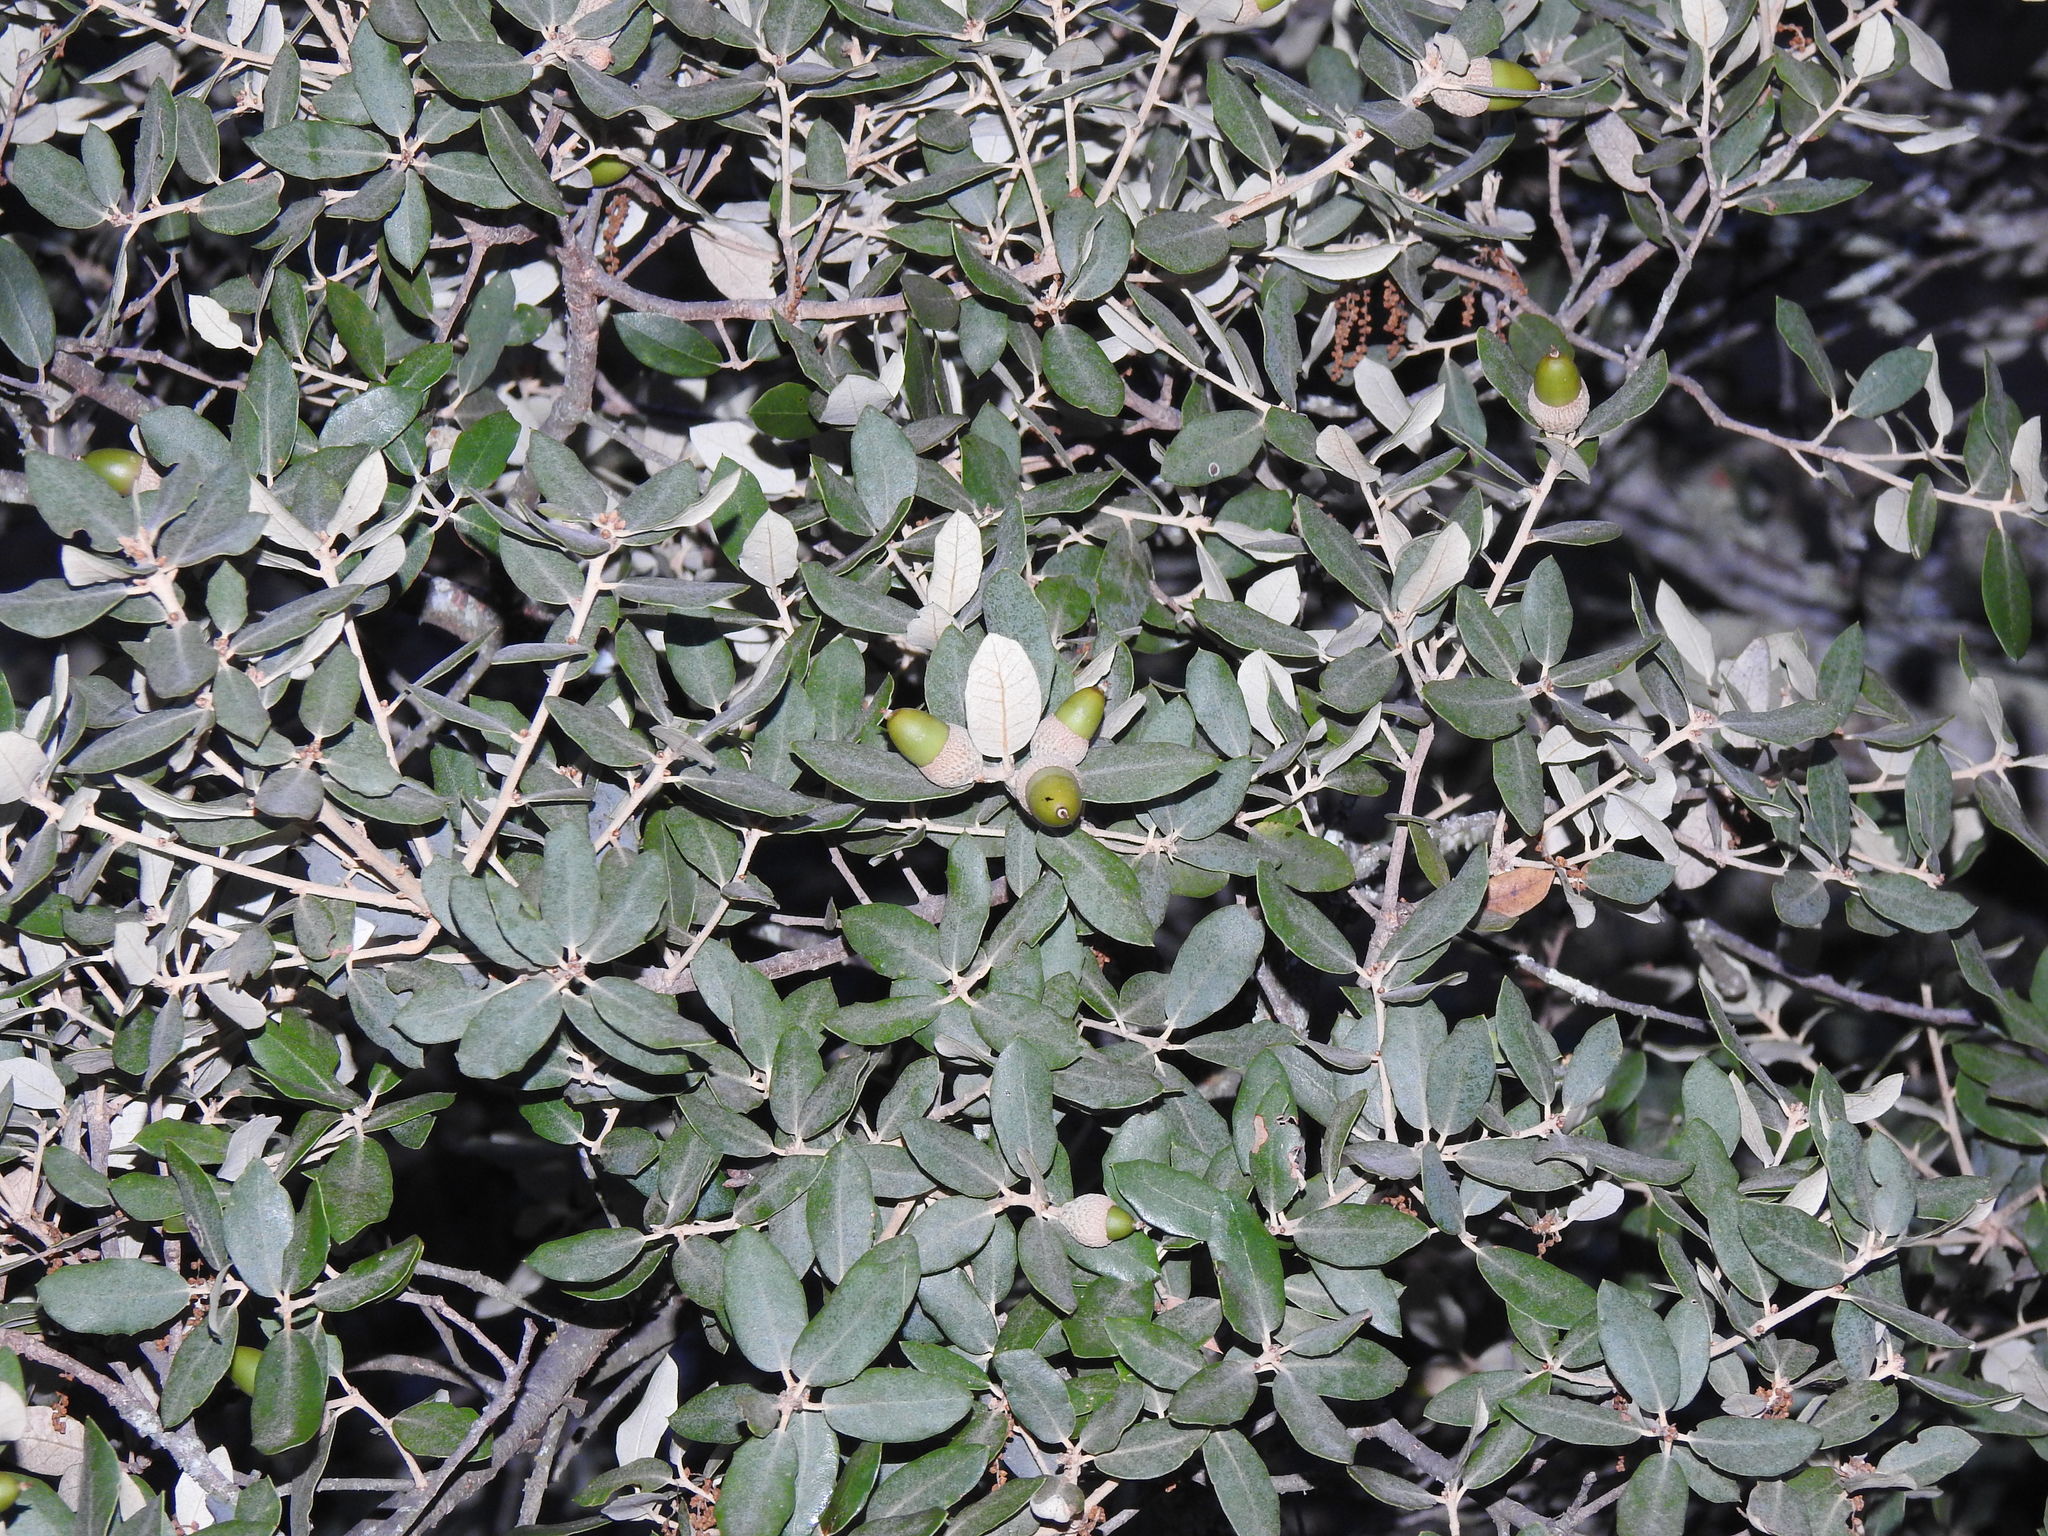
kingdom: Plantae
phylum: Tracheophyta
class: Magnoliopsida
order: Fagales
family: Fagaceae
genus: Quercus
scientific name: Quercus rotundifolia
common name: Holm oak
